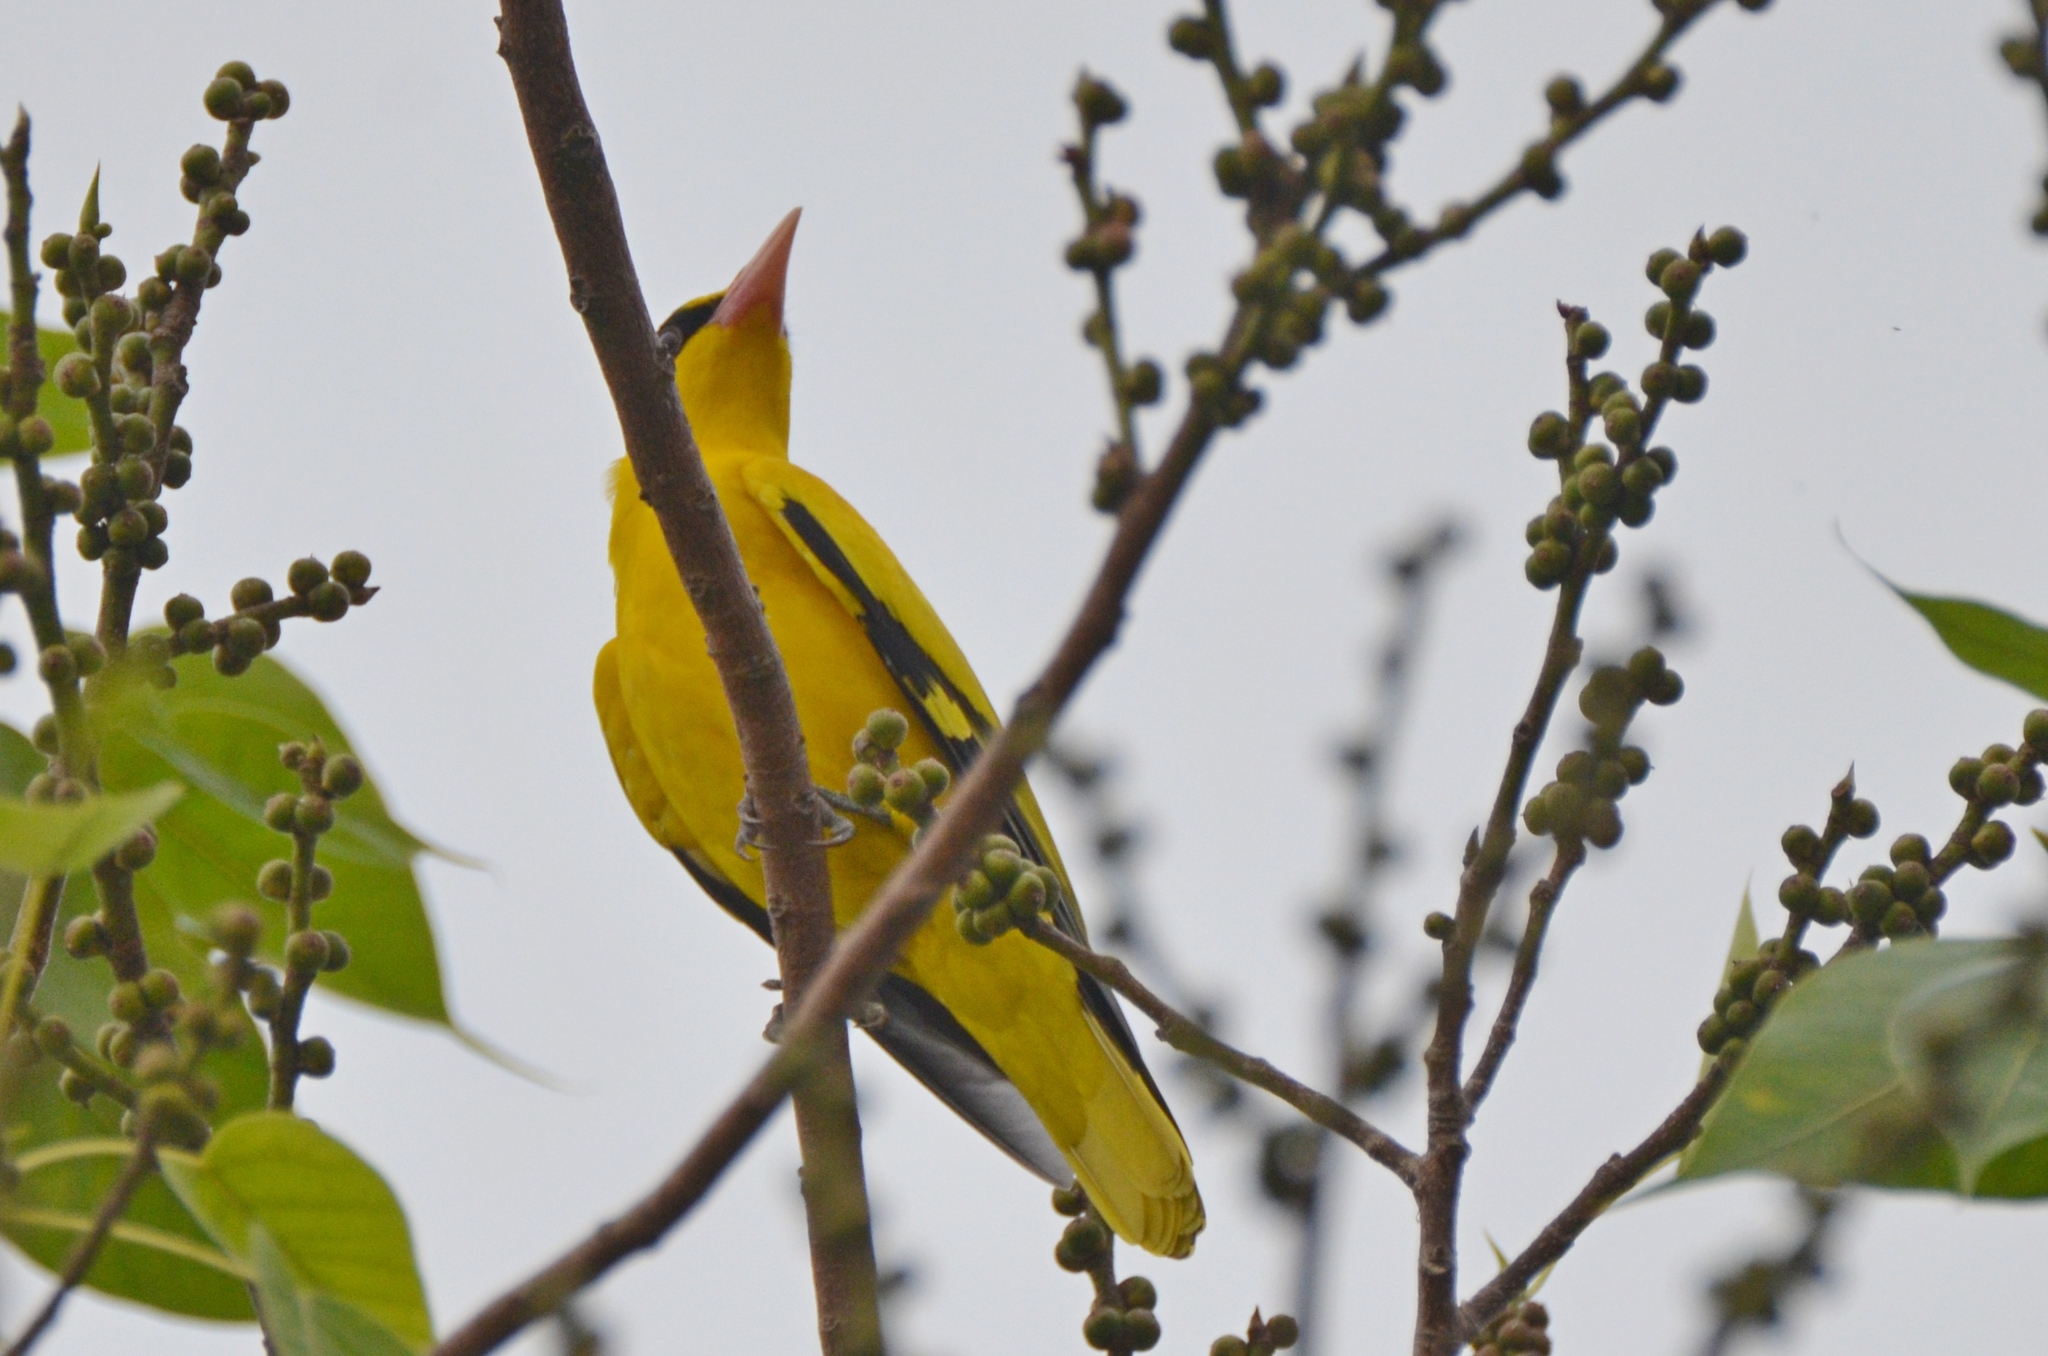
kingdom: Animalia
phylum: Chordata
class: Aves
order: Passeriformes
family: Oriolidae
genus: Oriolus
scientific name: Oriolus chinensis
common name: Black-naped oriole
